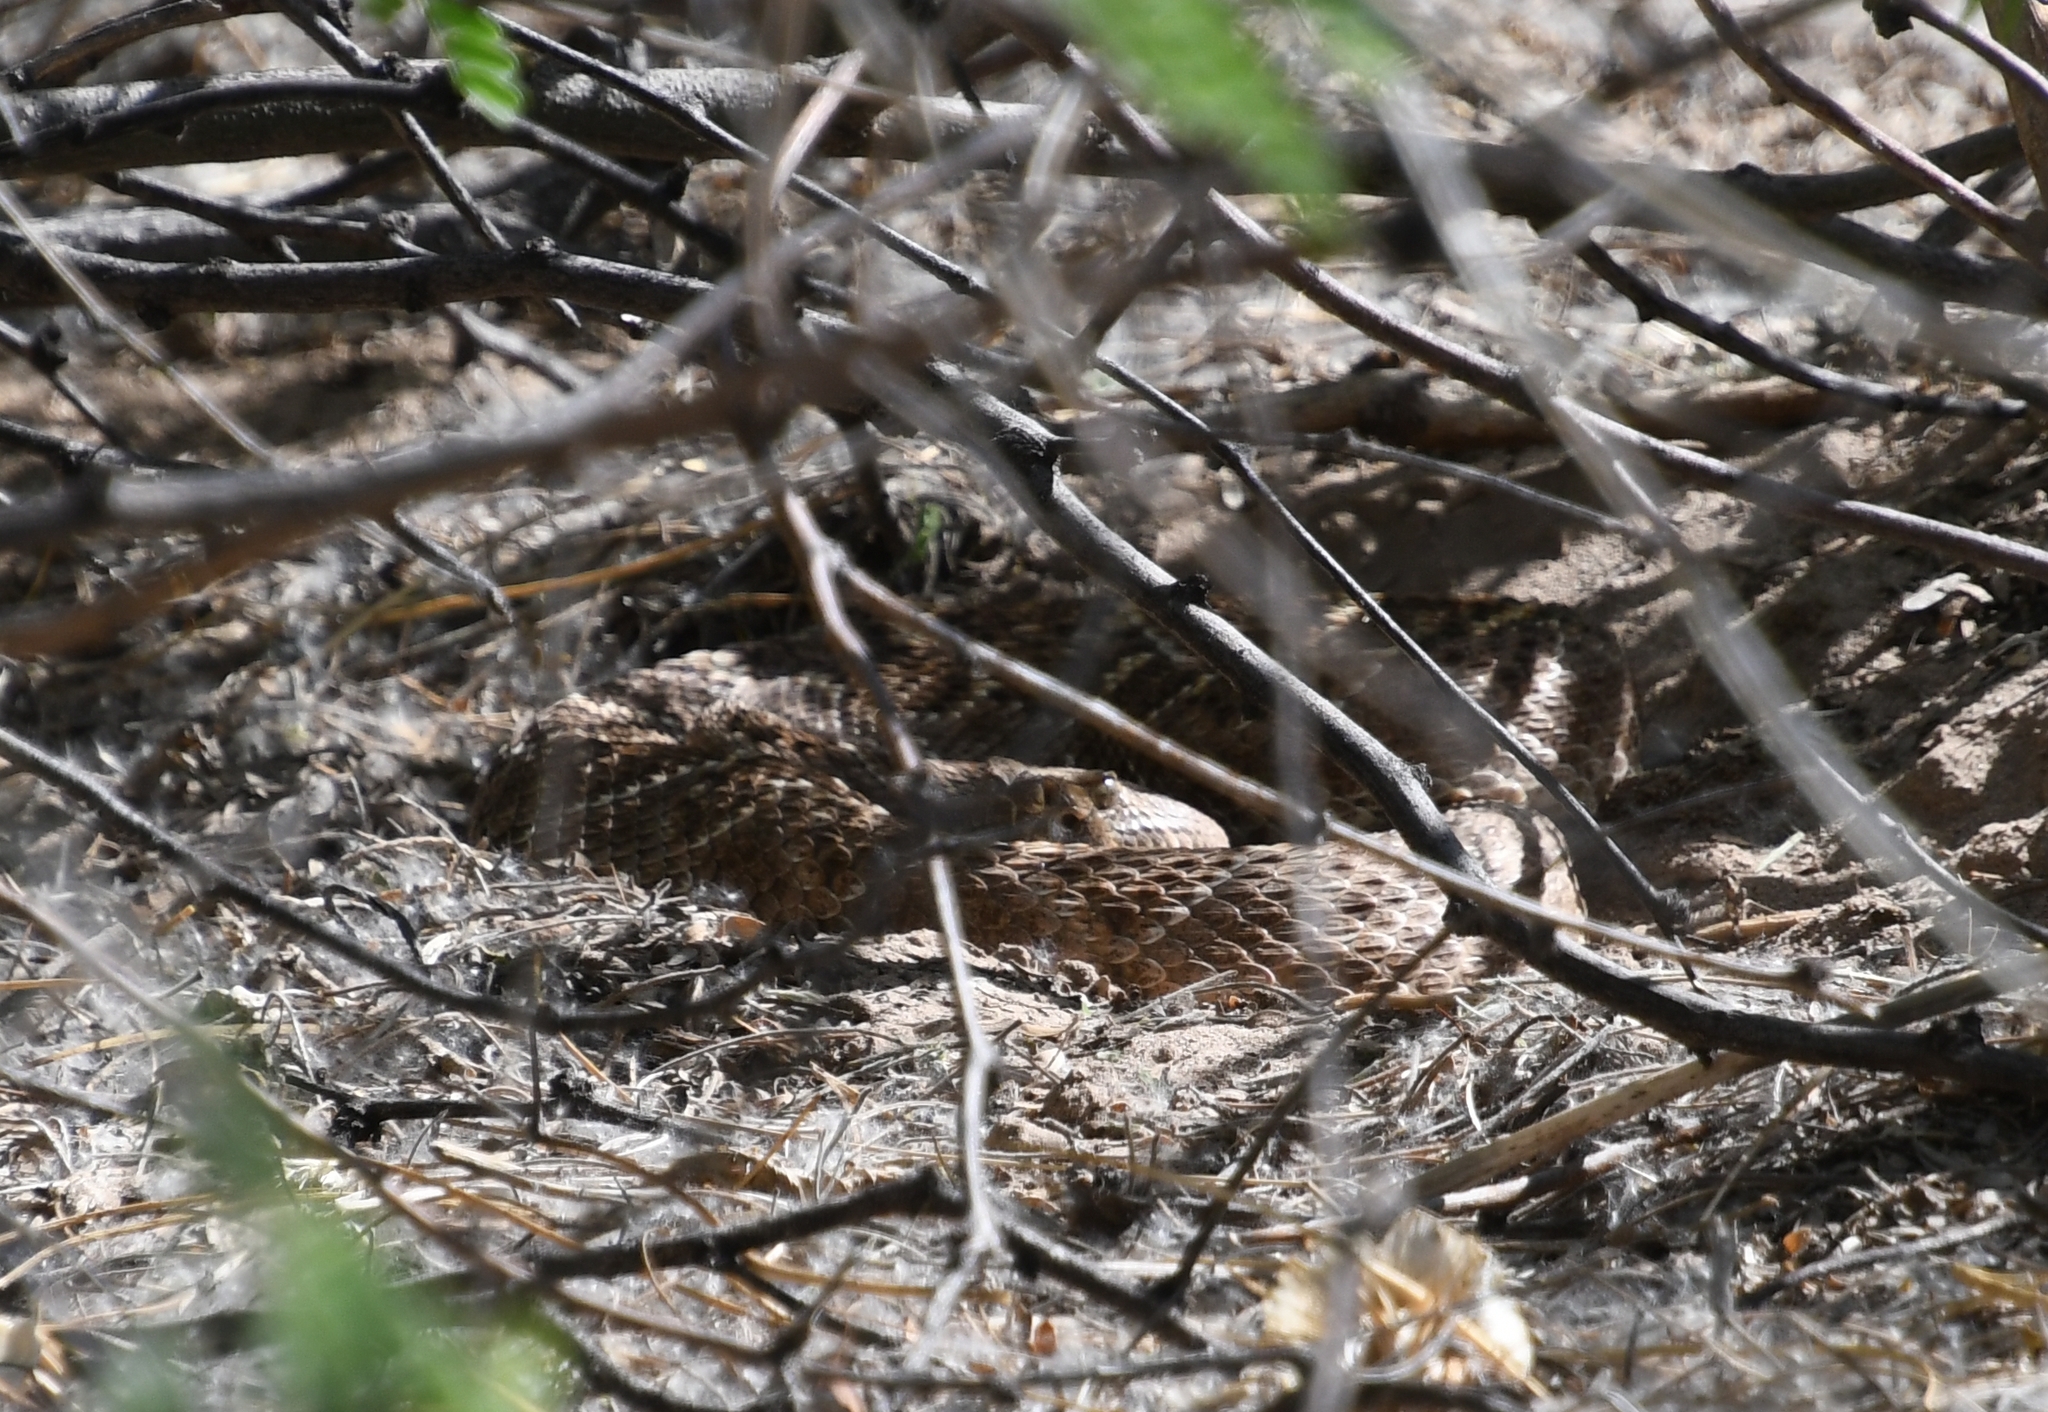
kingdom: Animalia
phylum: Chordata
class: Squamata
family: Viperidae
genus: Crotalus
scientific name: Crotalus atrox
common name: Western diamond-backed rattlesnake
